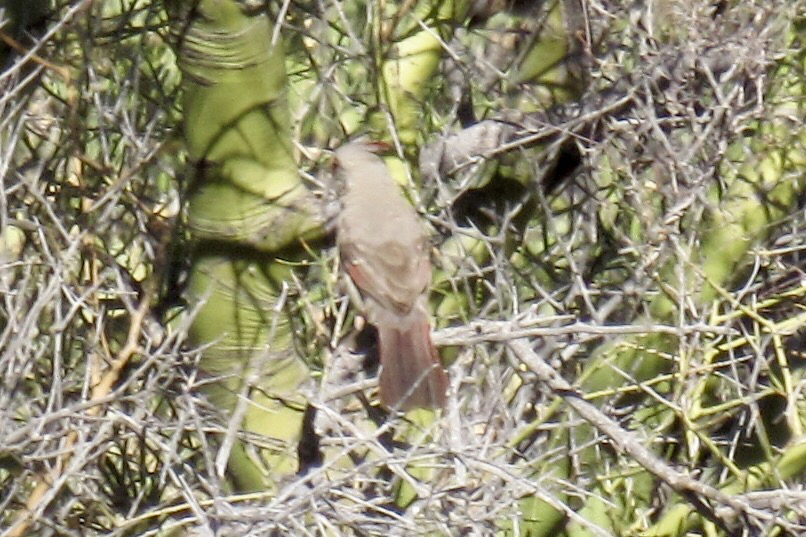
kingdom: Animalia
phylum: Chordata
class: Aves
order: Passeriformes
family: Cardinalidae
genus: Cardinalis
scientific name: Cardinalis sinuatus
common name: Pyrrhuloxia
